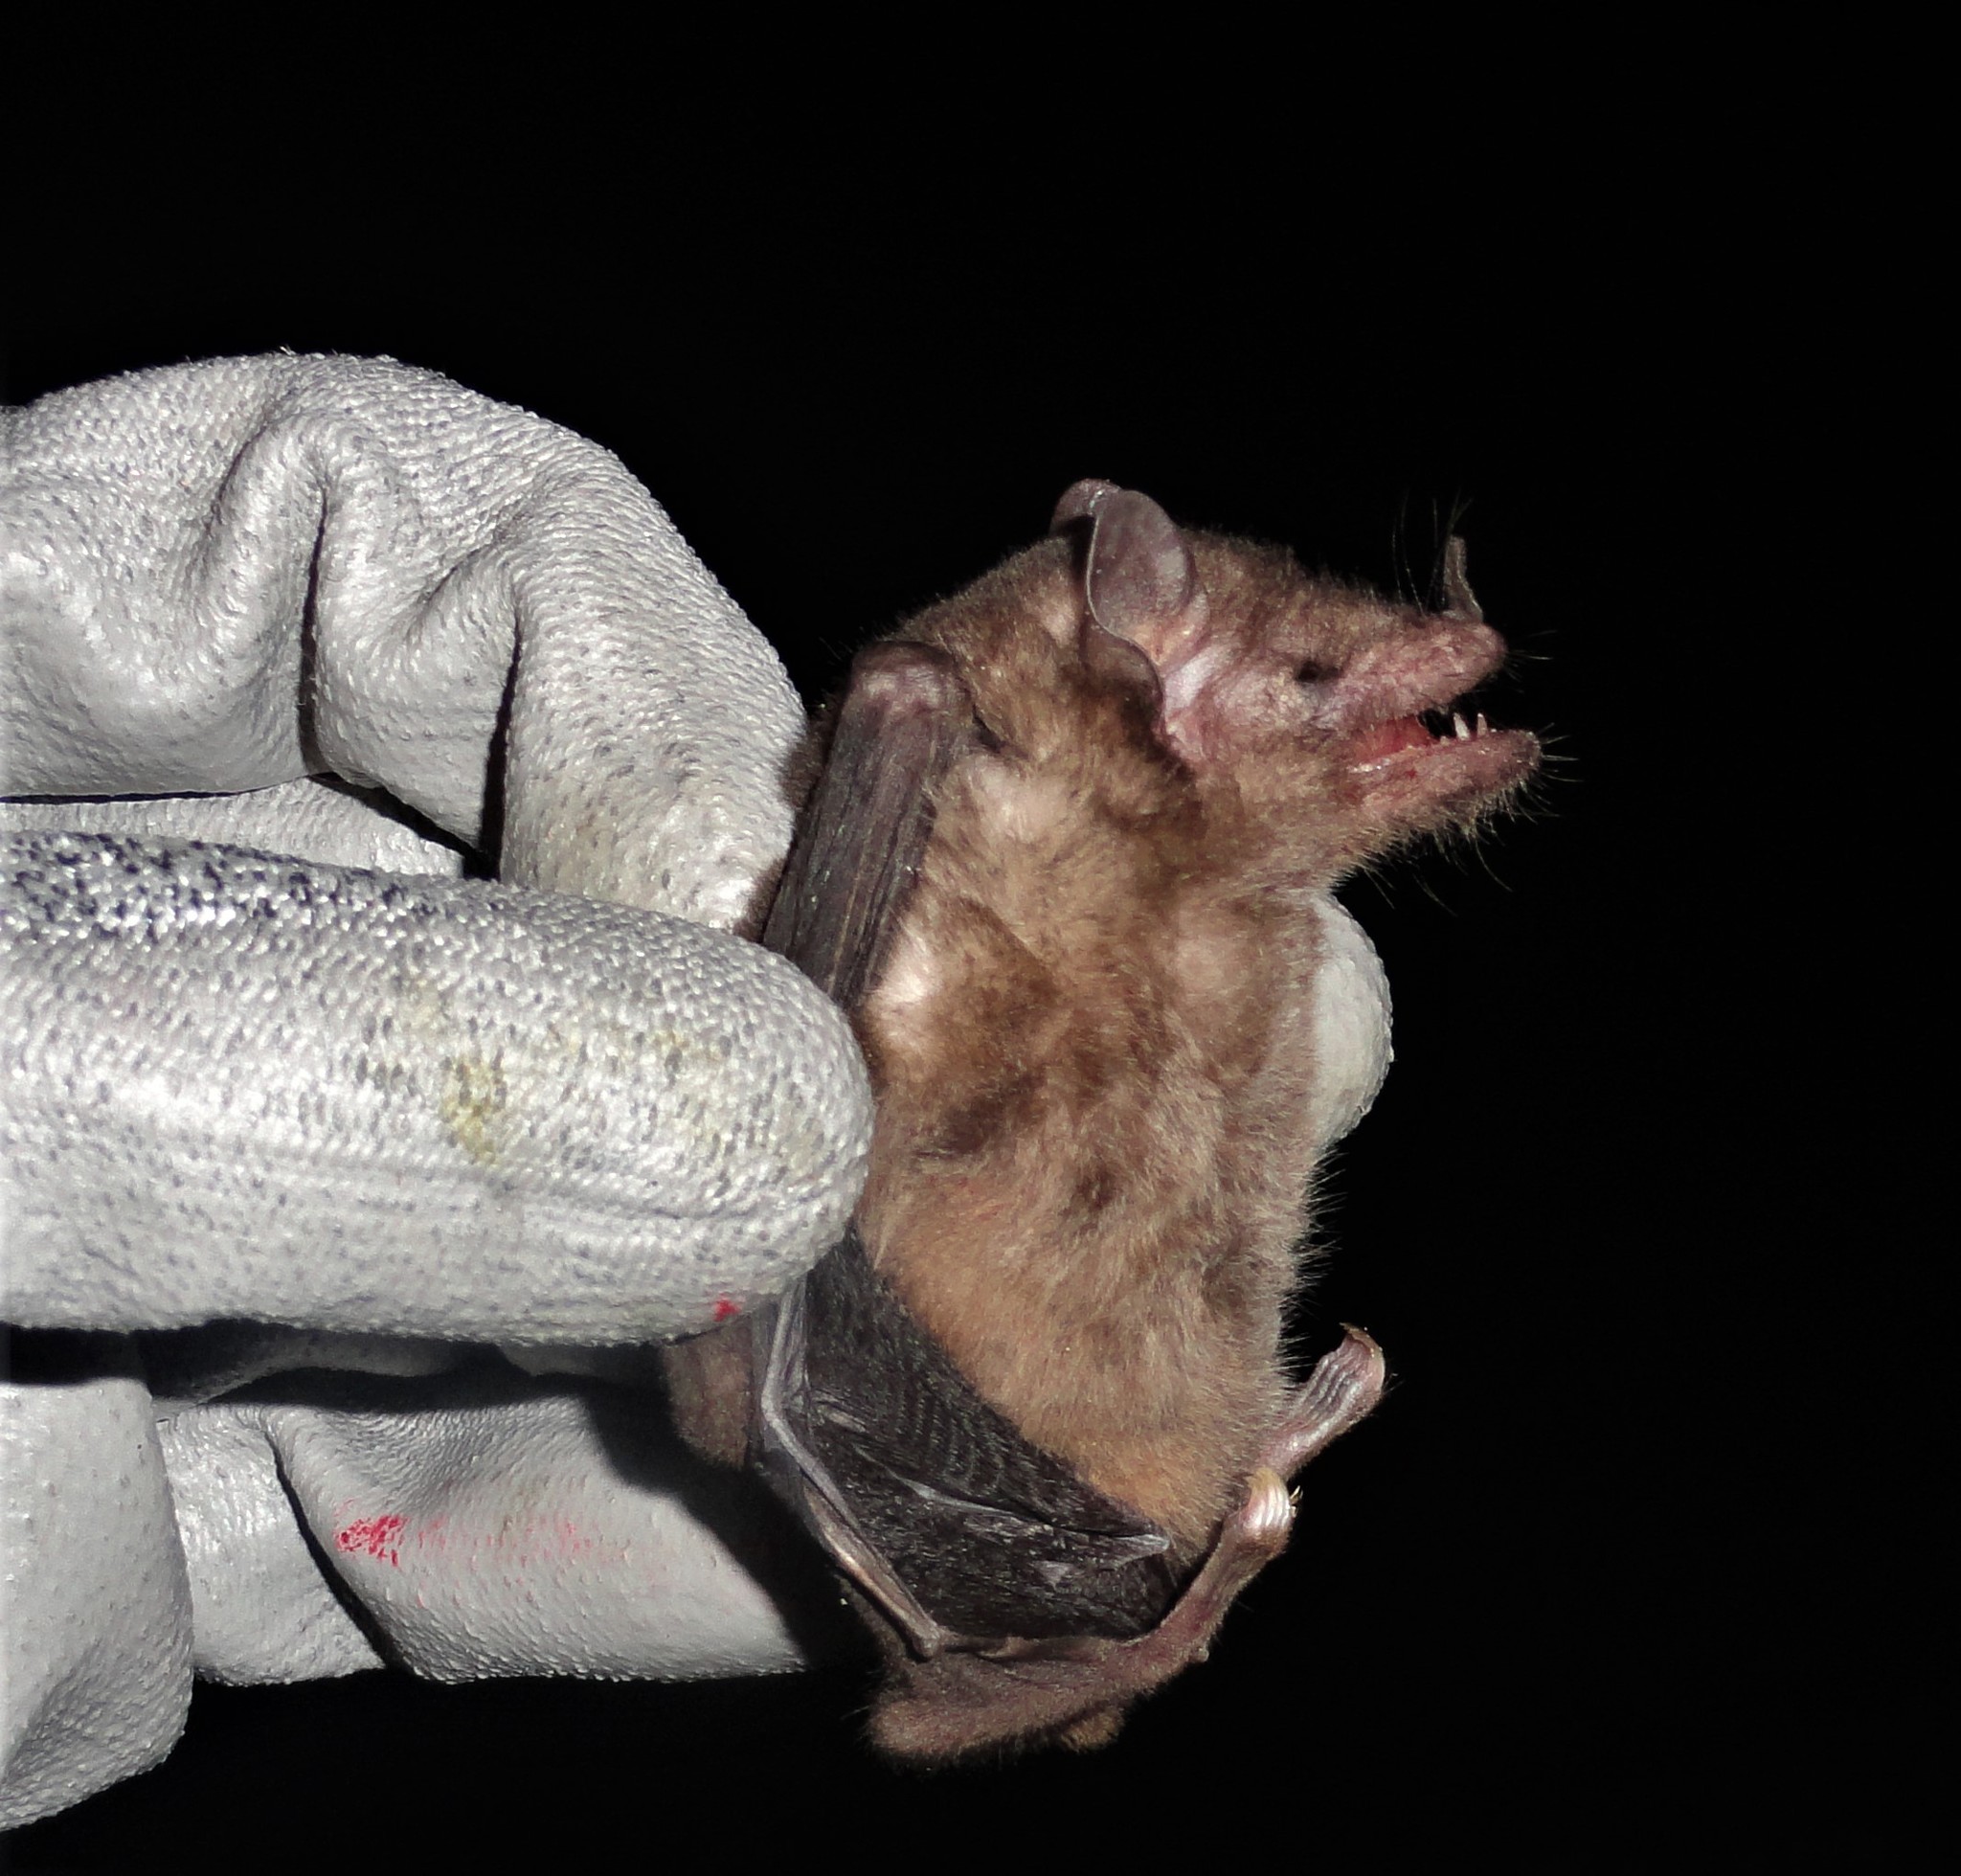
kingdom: Animalia
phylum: Chordata
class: Mammalia
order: Chiroptera
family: Phyllostomidae
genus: Anoura
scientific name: Anoura geoffroyi
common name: Geoffroy's tailless bat
